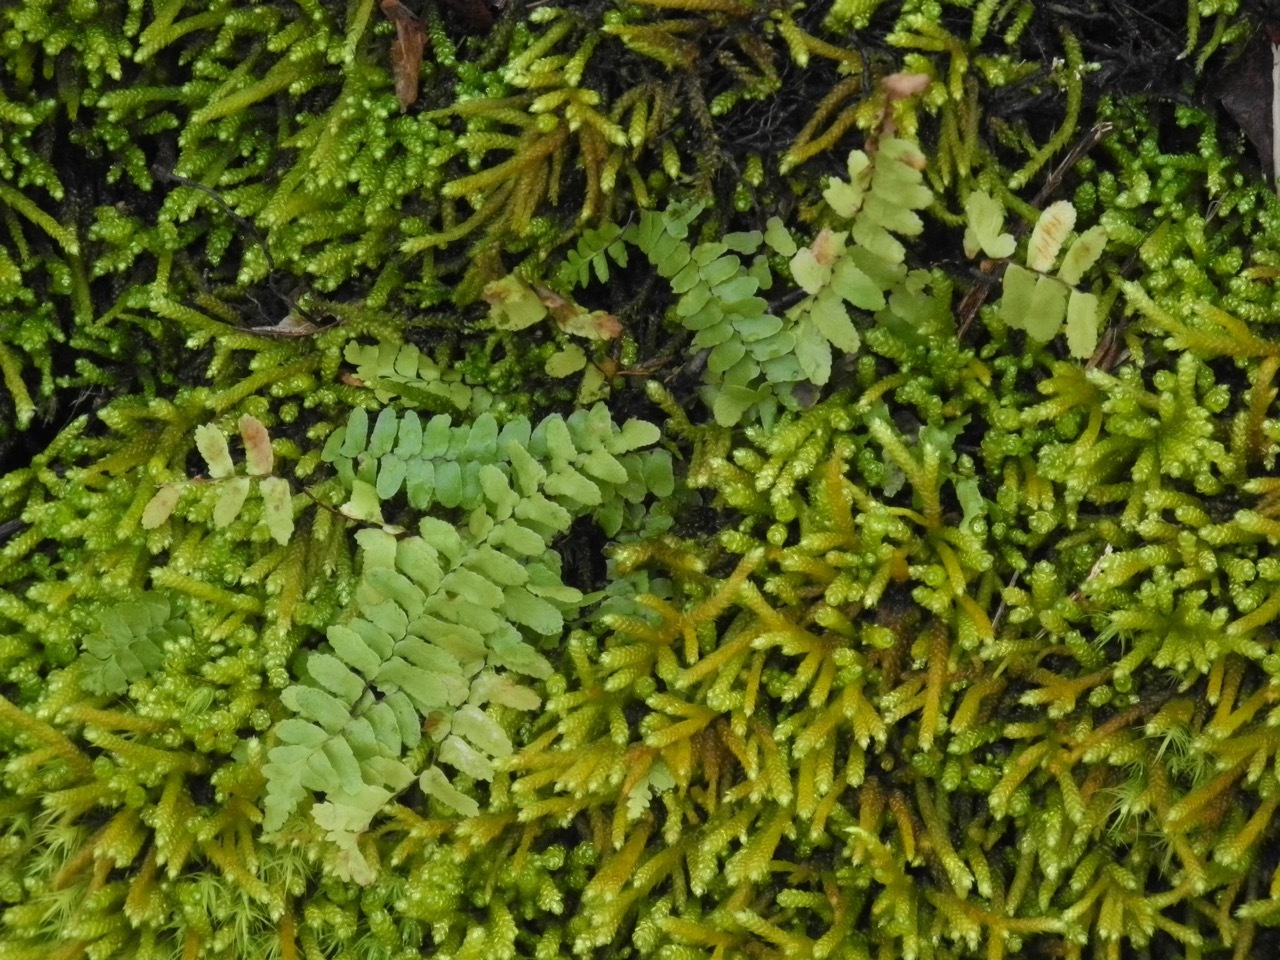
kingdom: Plantae
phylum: Tracheophyta
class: Polypodiopsida
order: Polypodiales
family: Aspleniaceae
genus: Asplenium
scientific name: Asplenium platyneuron
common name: Ebony spleenwort
